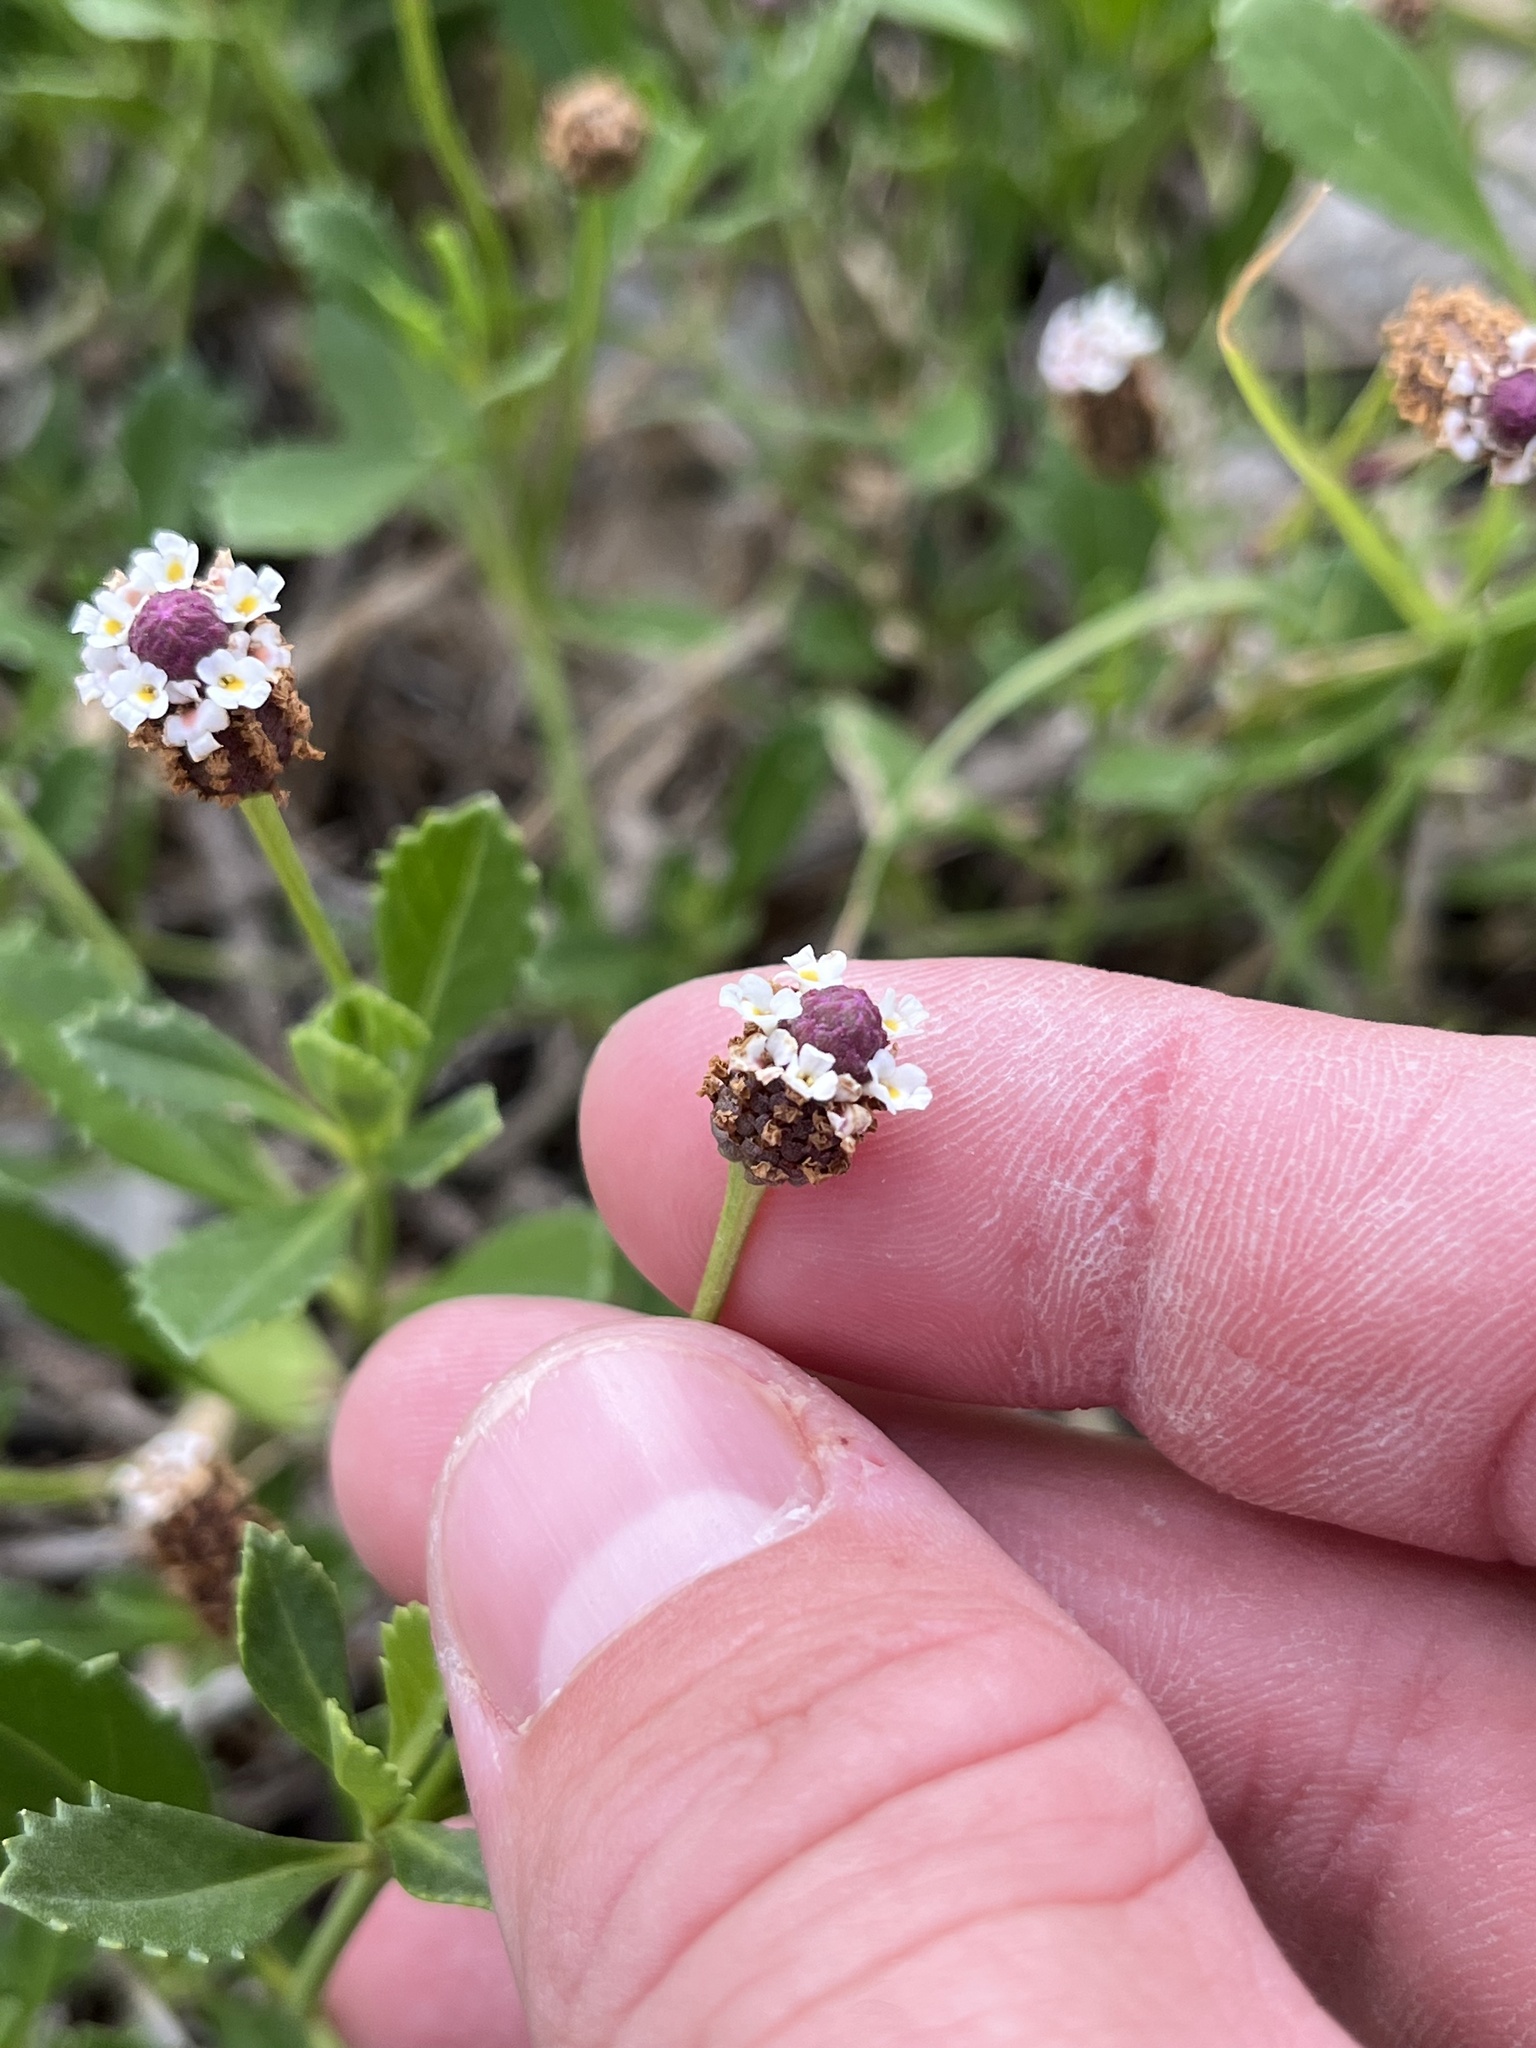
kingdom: Plantae
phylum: Tracheophyta
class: Magnoliopsida
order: Lamiales
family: Verbenaceae
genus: Phyla
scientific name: Phyla nodiflora
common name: Frogfruit
